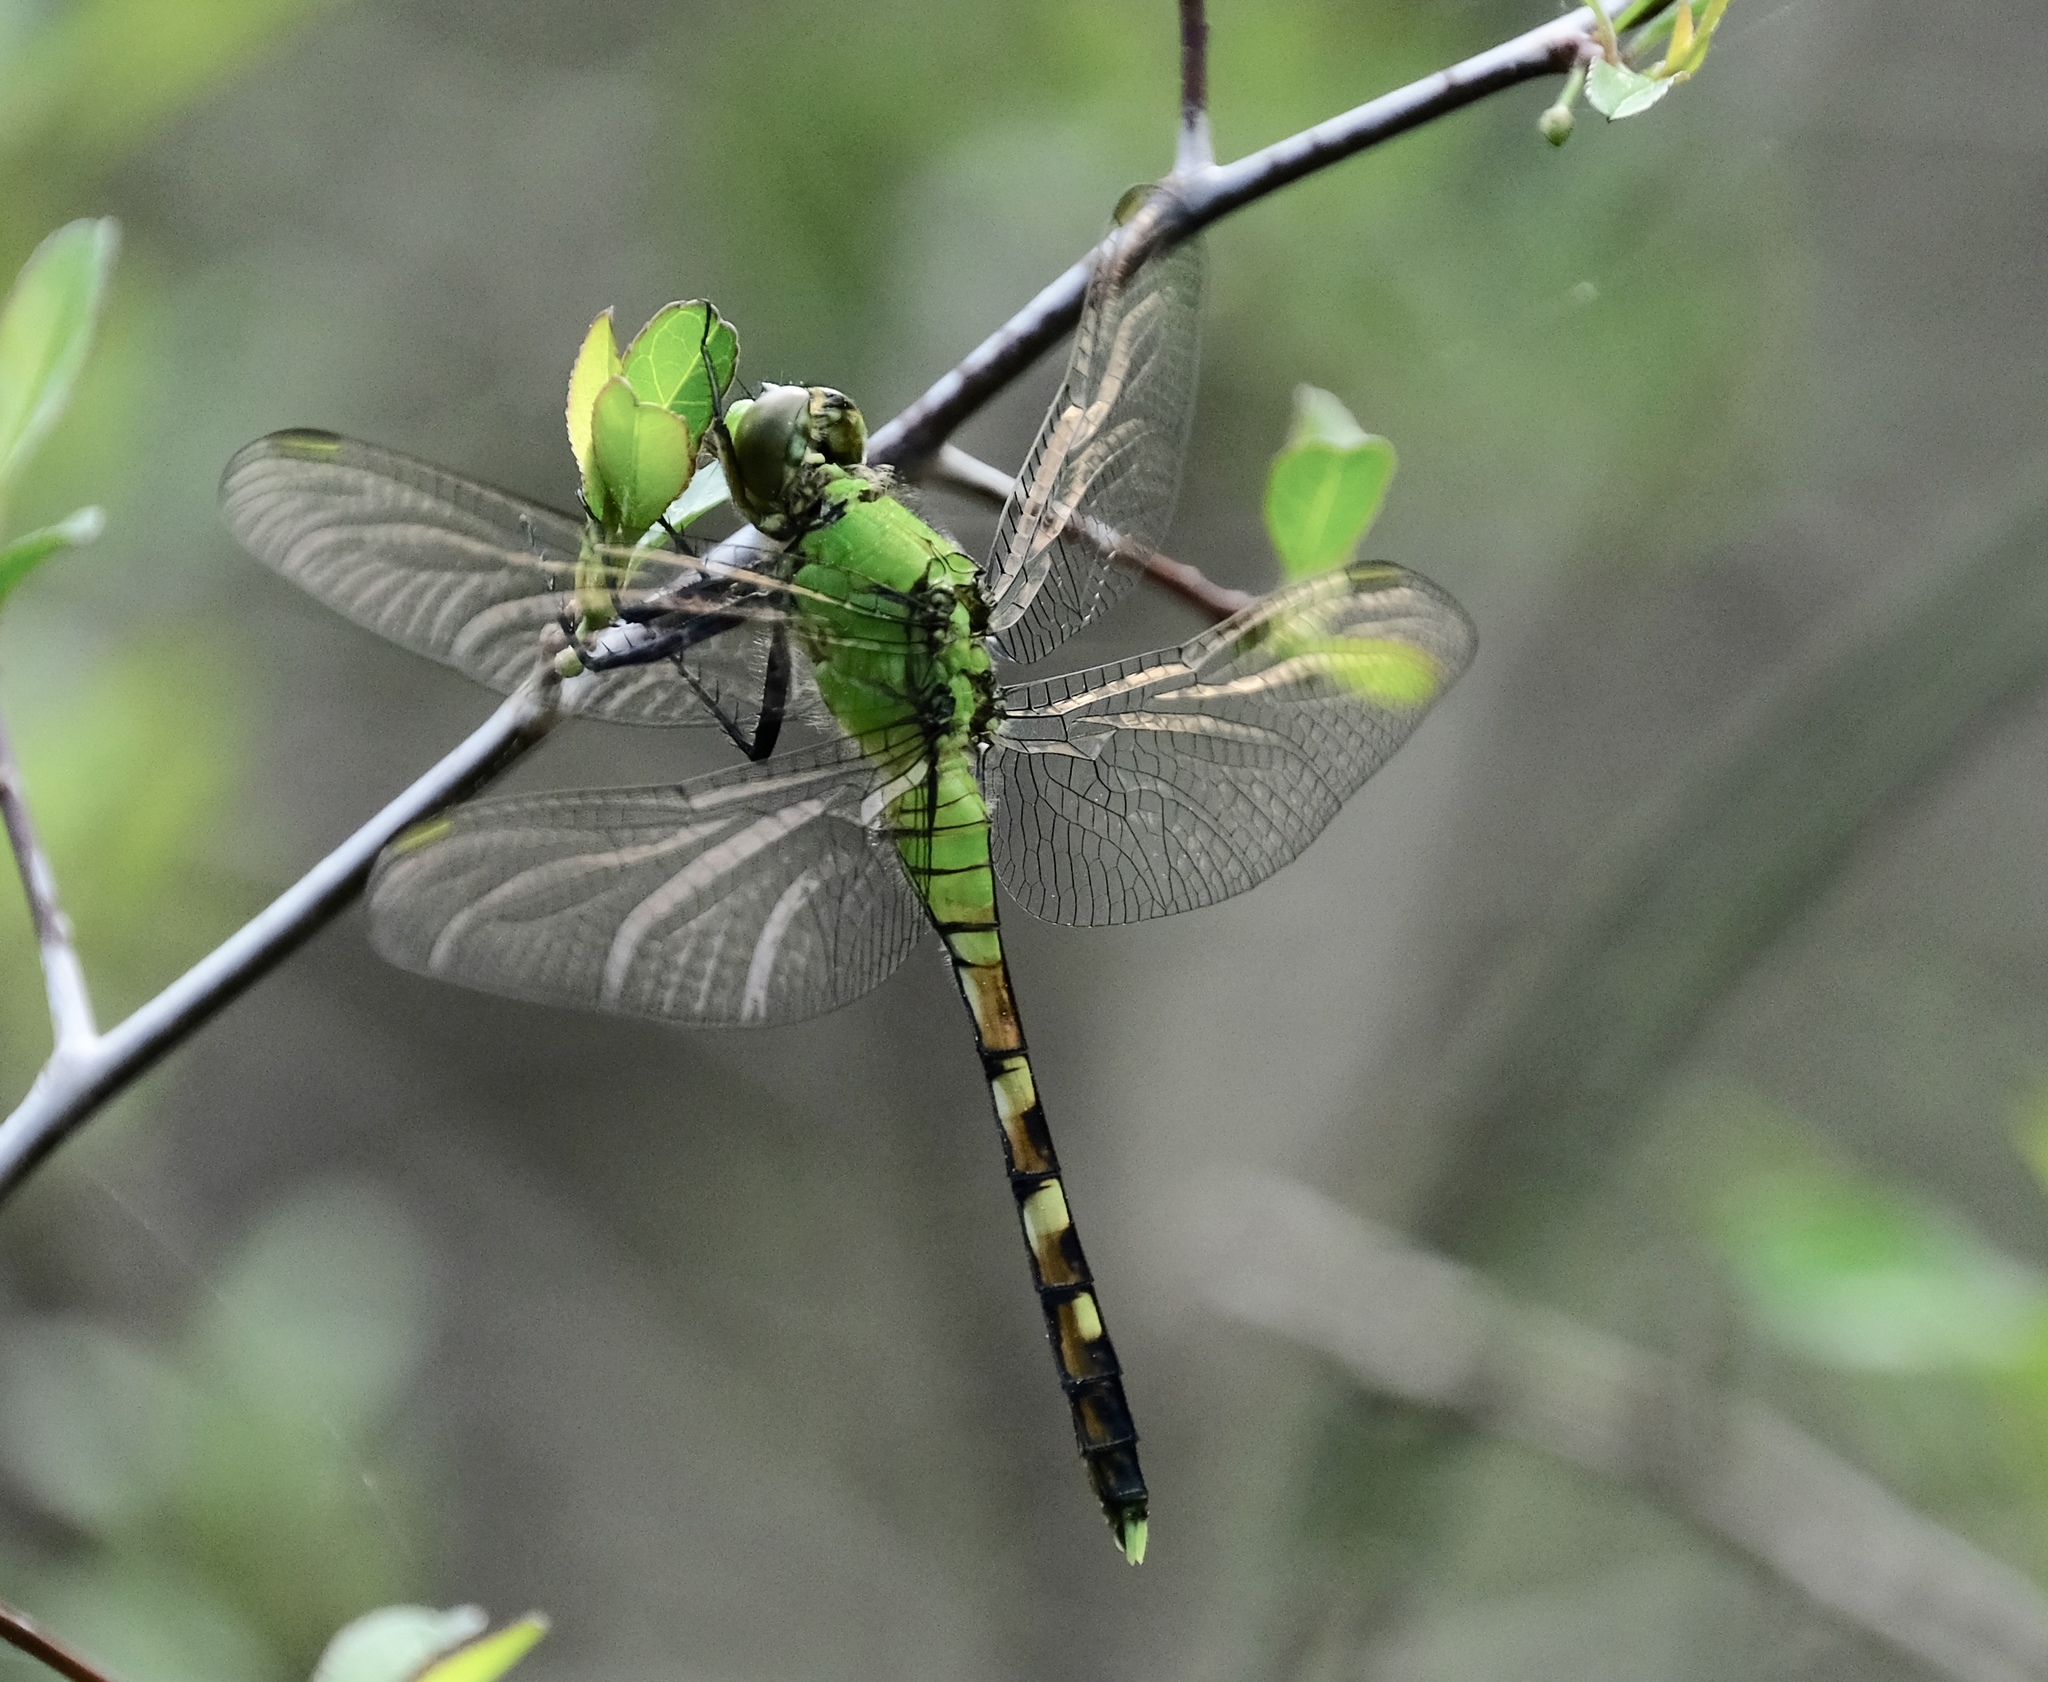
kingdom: Animalia
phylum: Arthropoda
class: Insecta
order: Odonata
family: Libellulidae
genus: Erythemis
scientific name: Erythemis simplicicollis
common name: Eastern pondhawk
